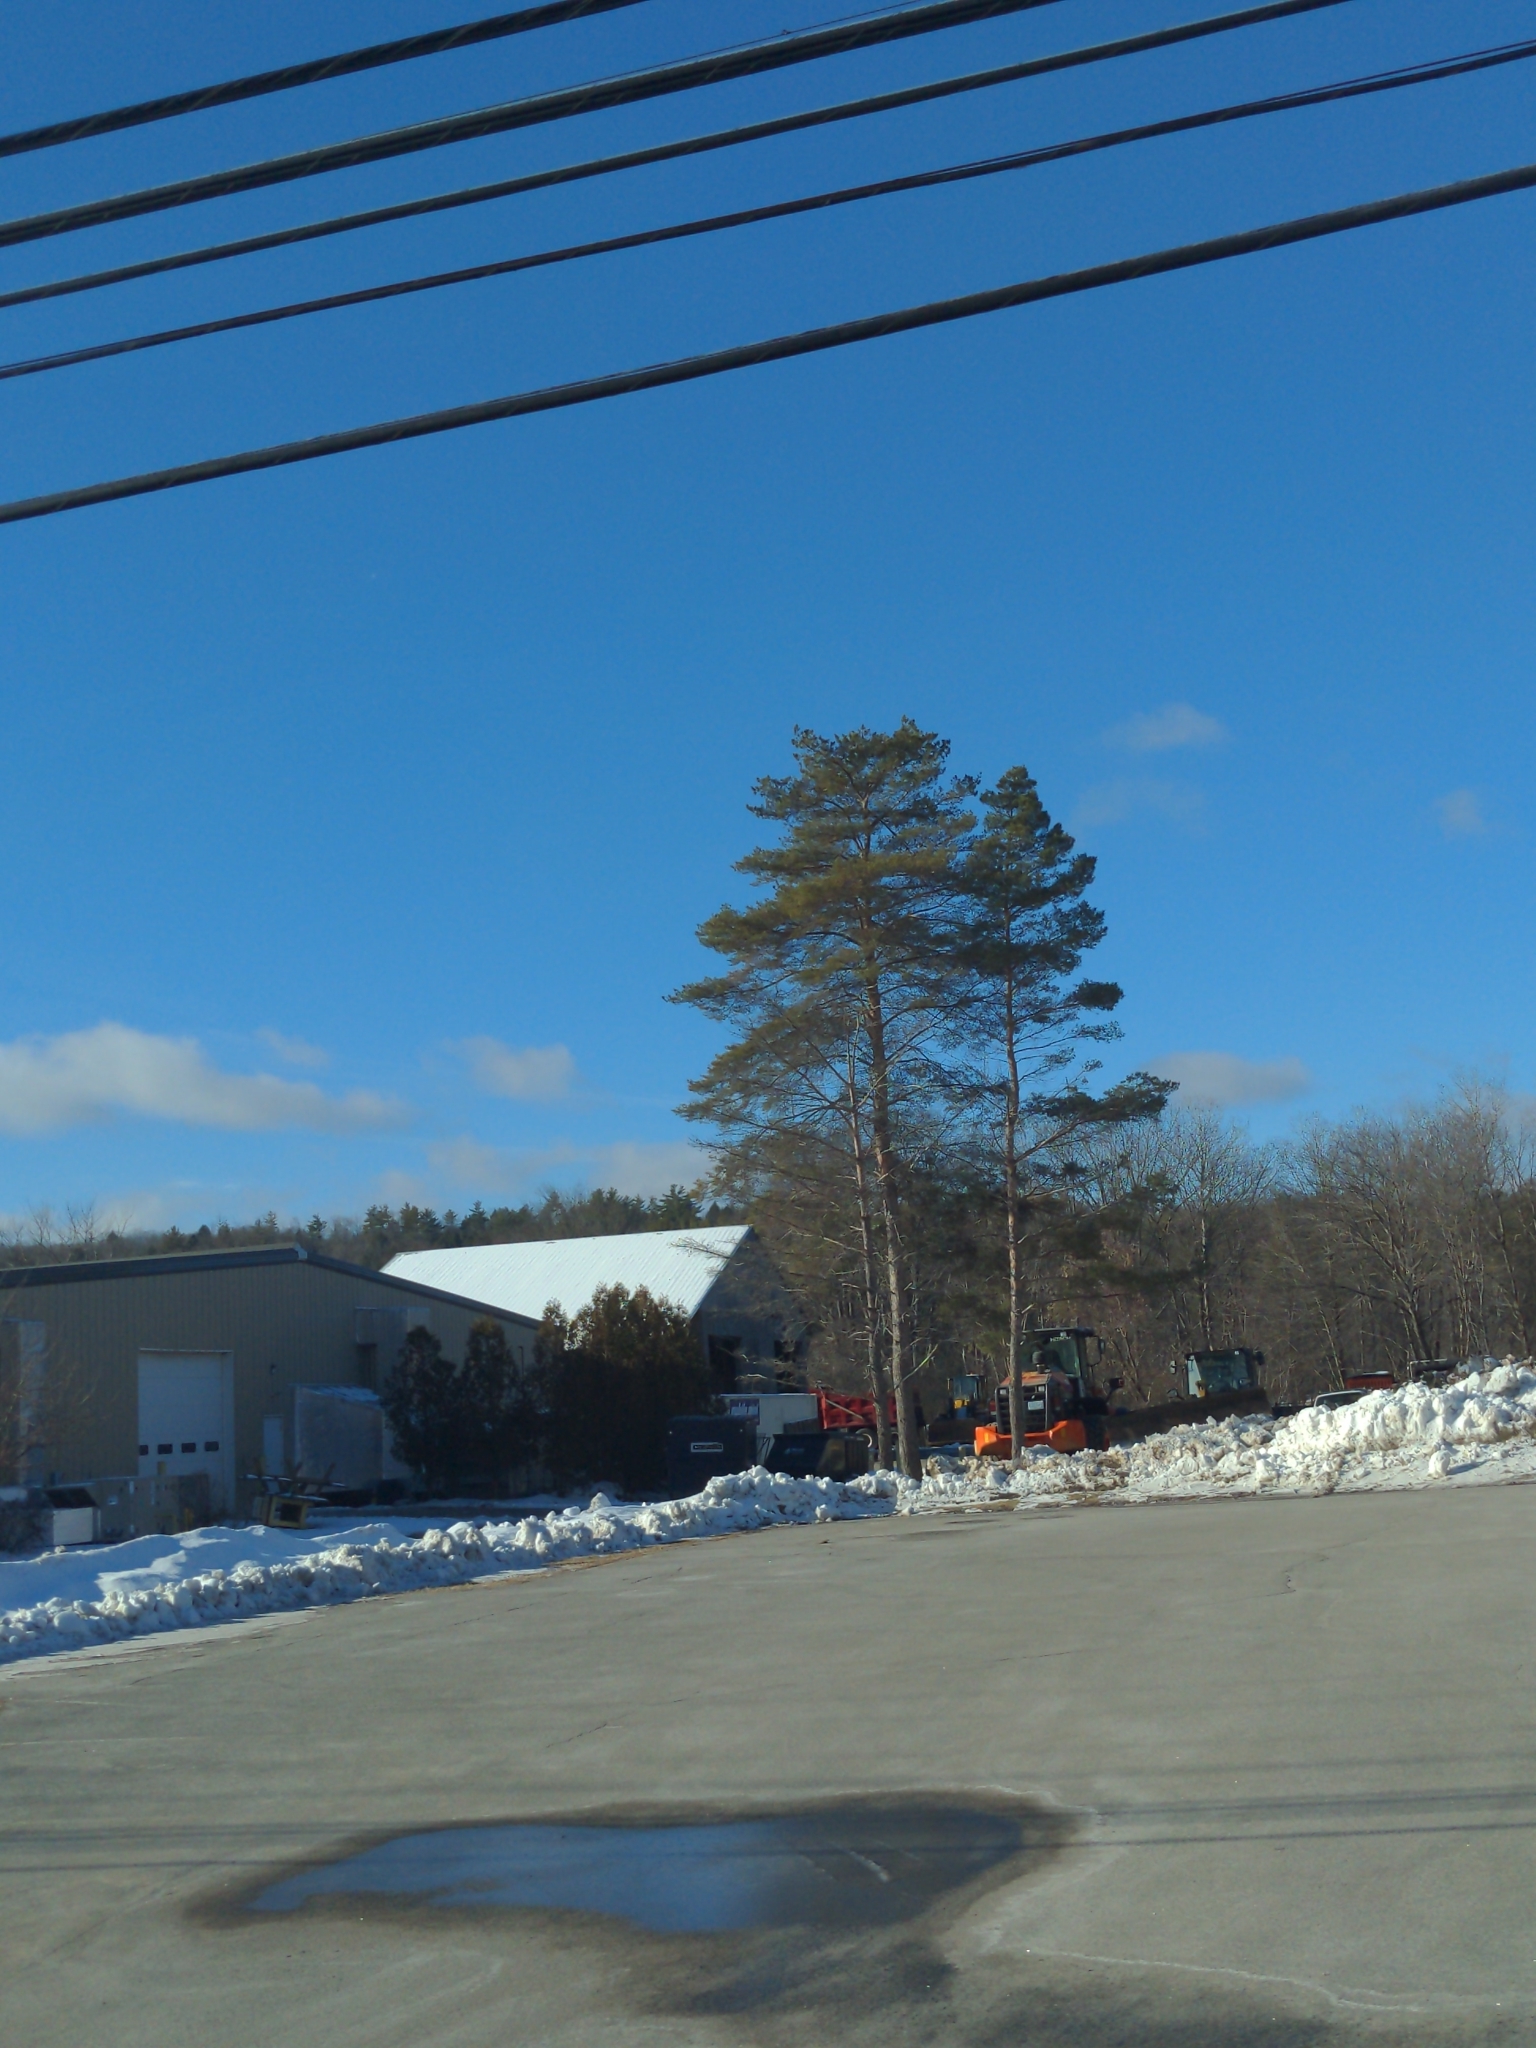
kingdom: Plantae
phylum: Tracheophyta
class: Pinopsida
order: Pinales
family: Pinaceae
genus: Pinus
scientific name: Pinus strobus
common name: Weymouth pine
